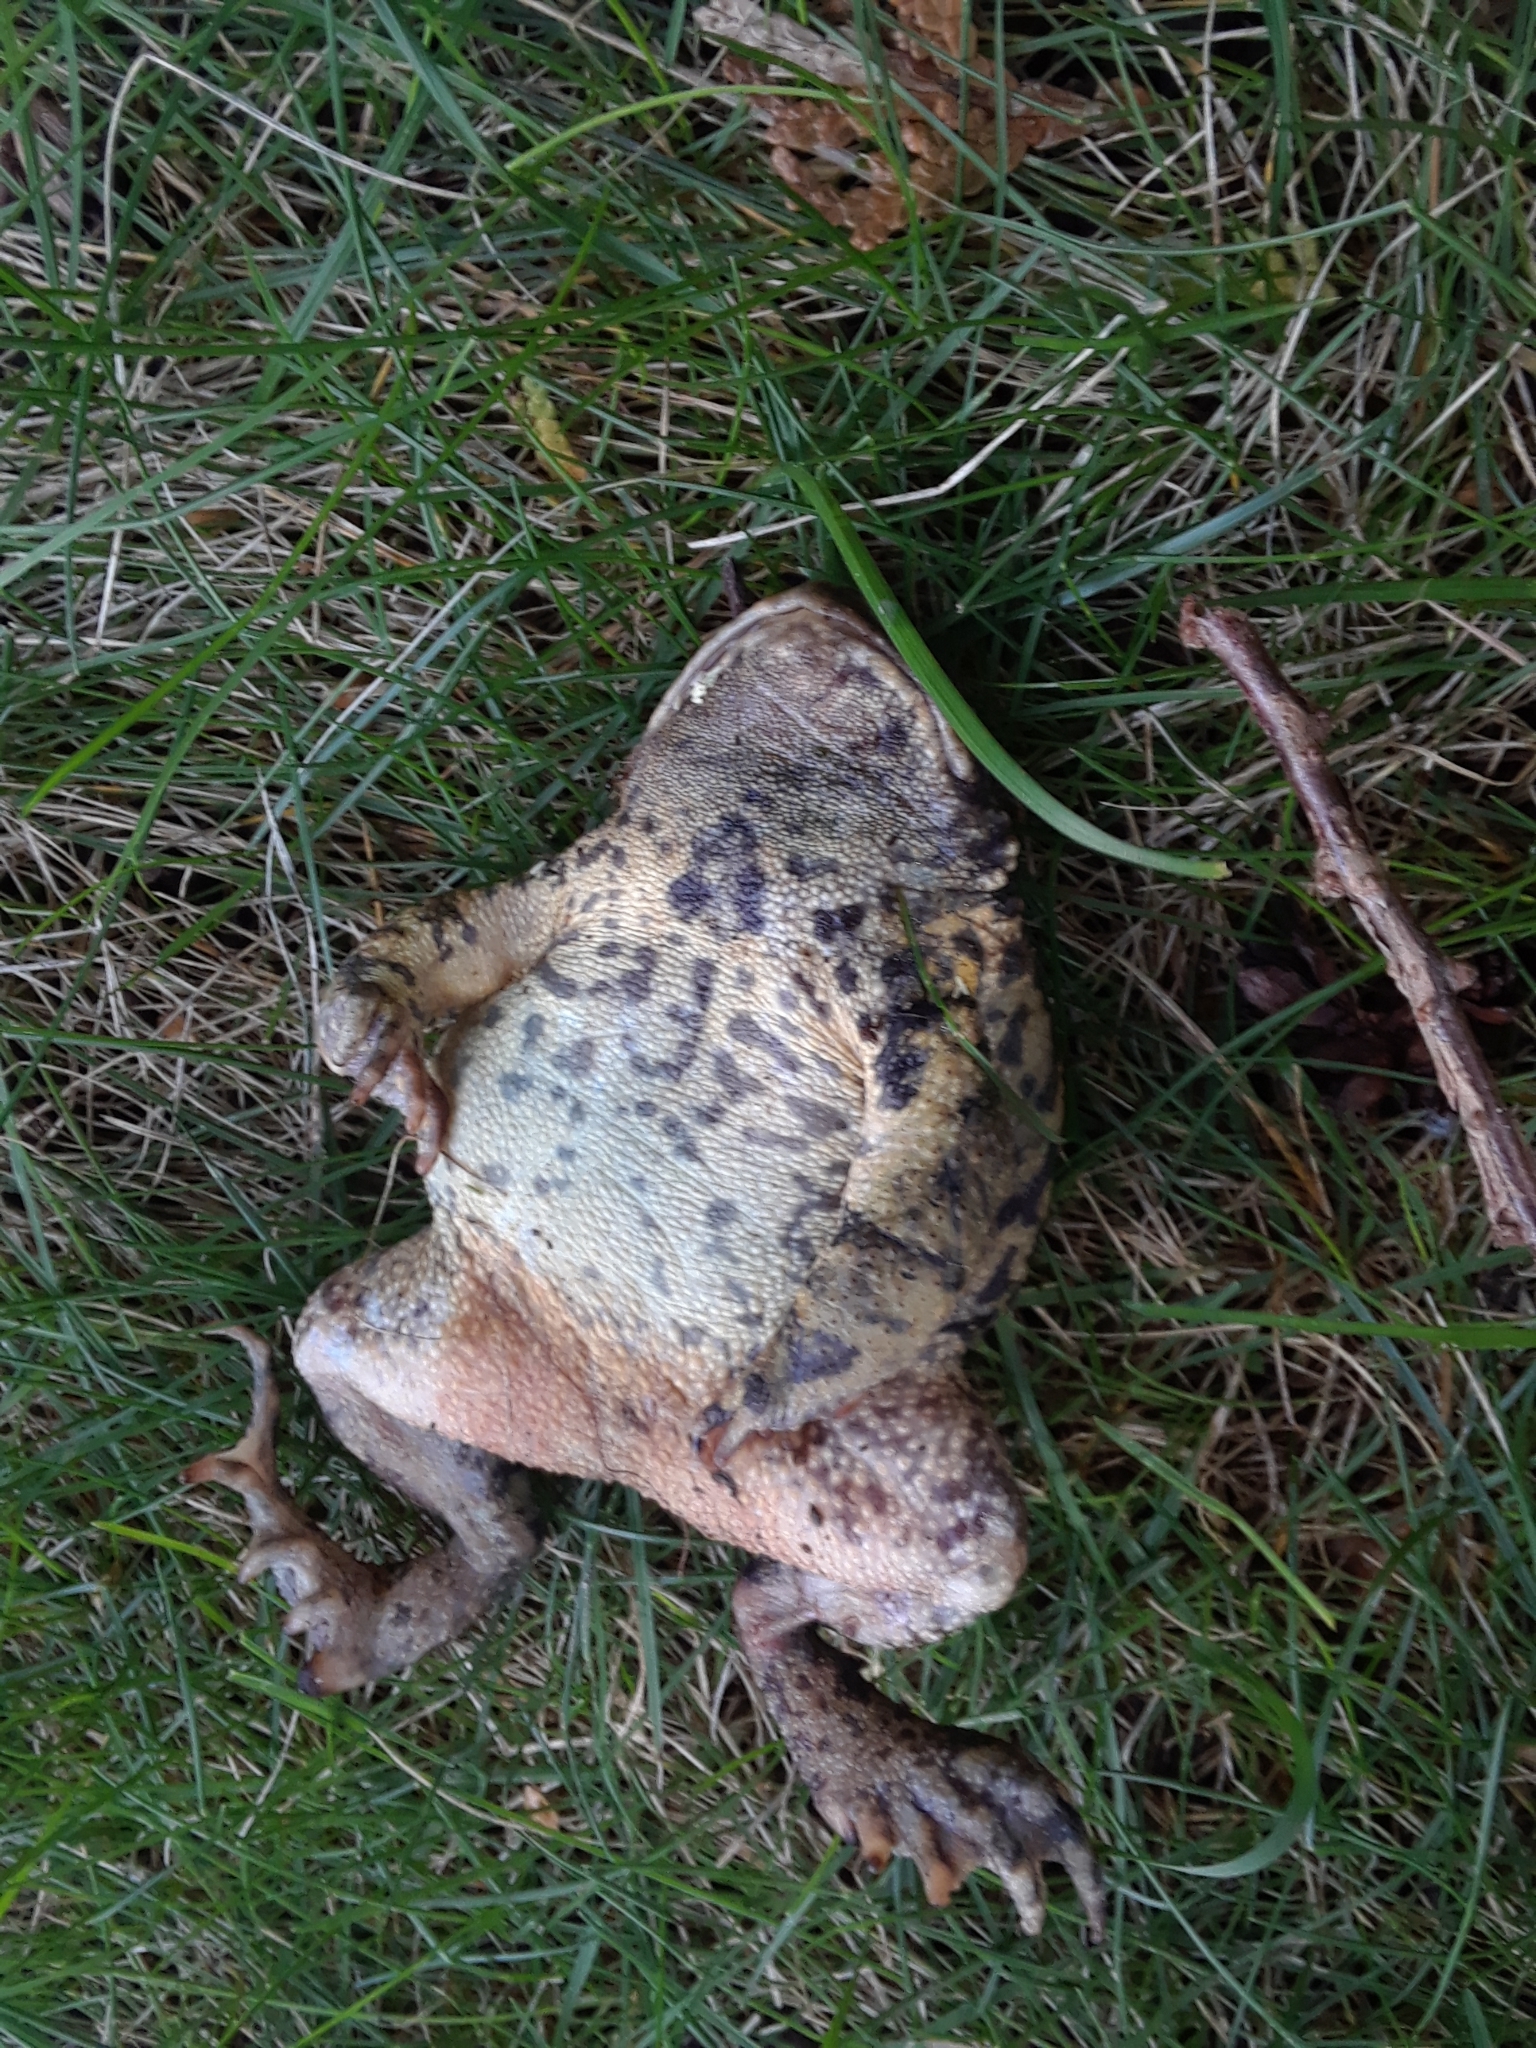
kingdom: Animalia
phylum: Chordata
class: Amphibia
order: Anura
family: Bufonidae
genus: Anaxyrus
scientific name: Anaxyrus americanus
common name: American toad
